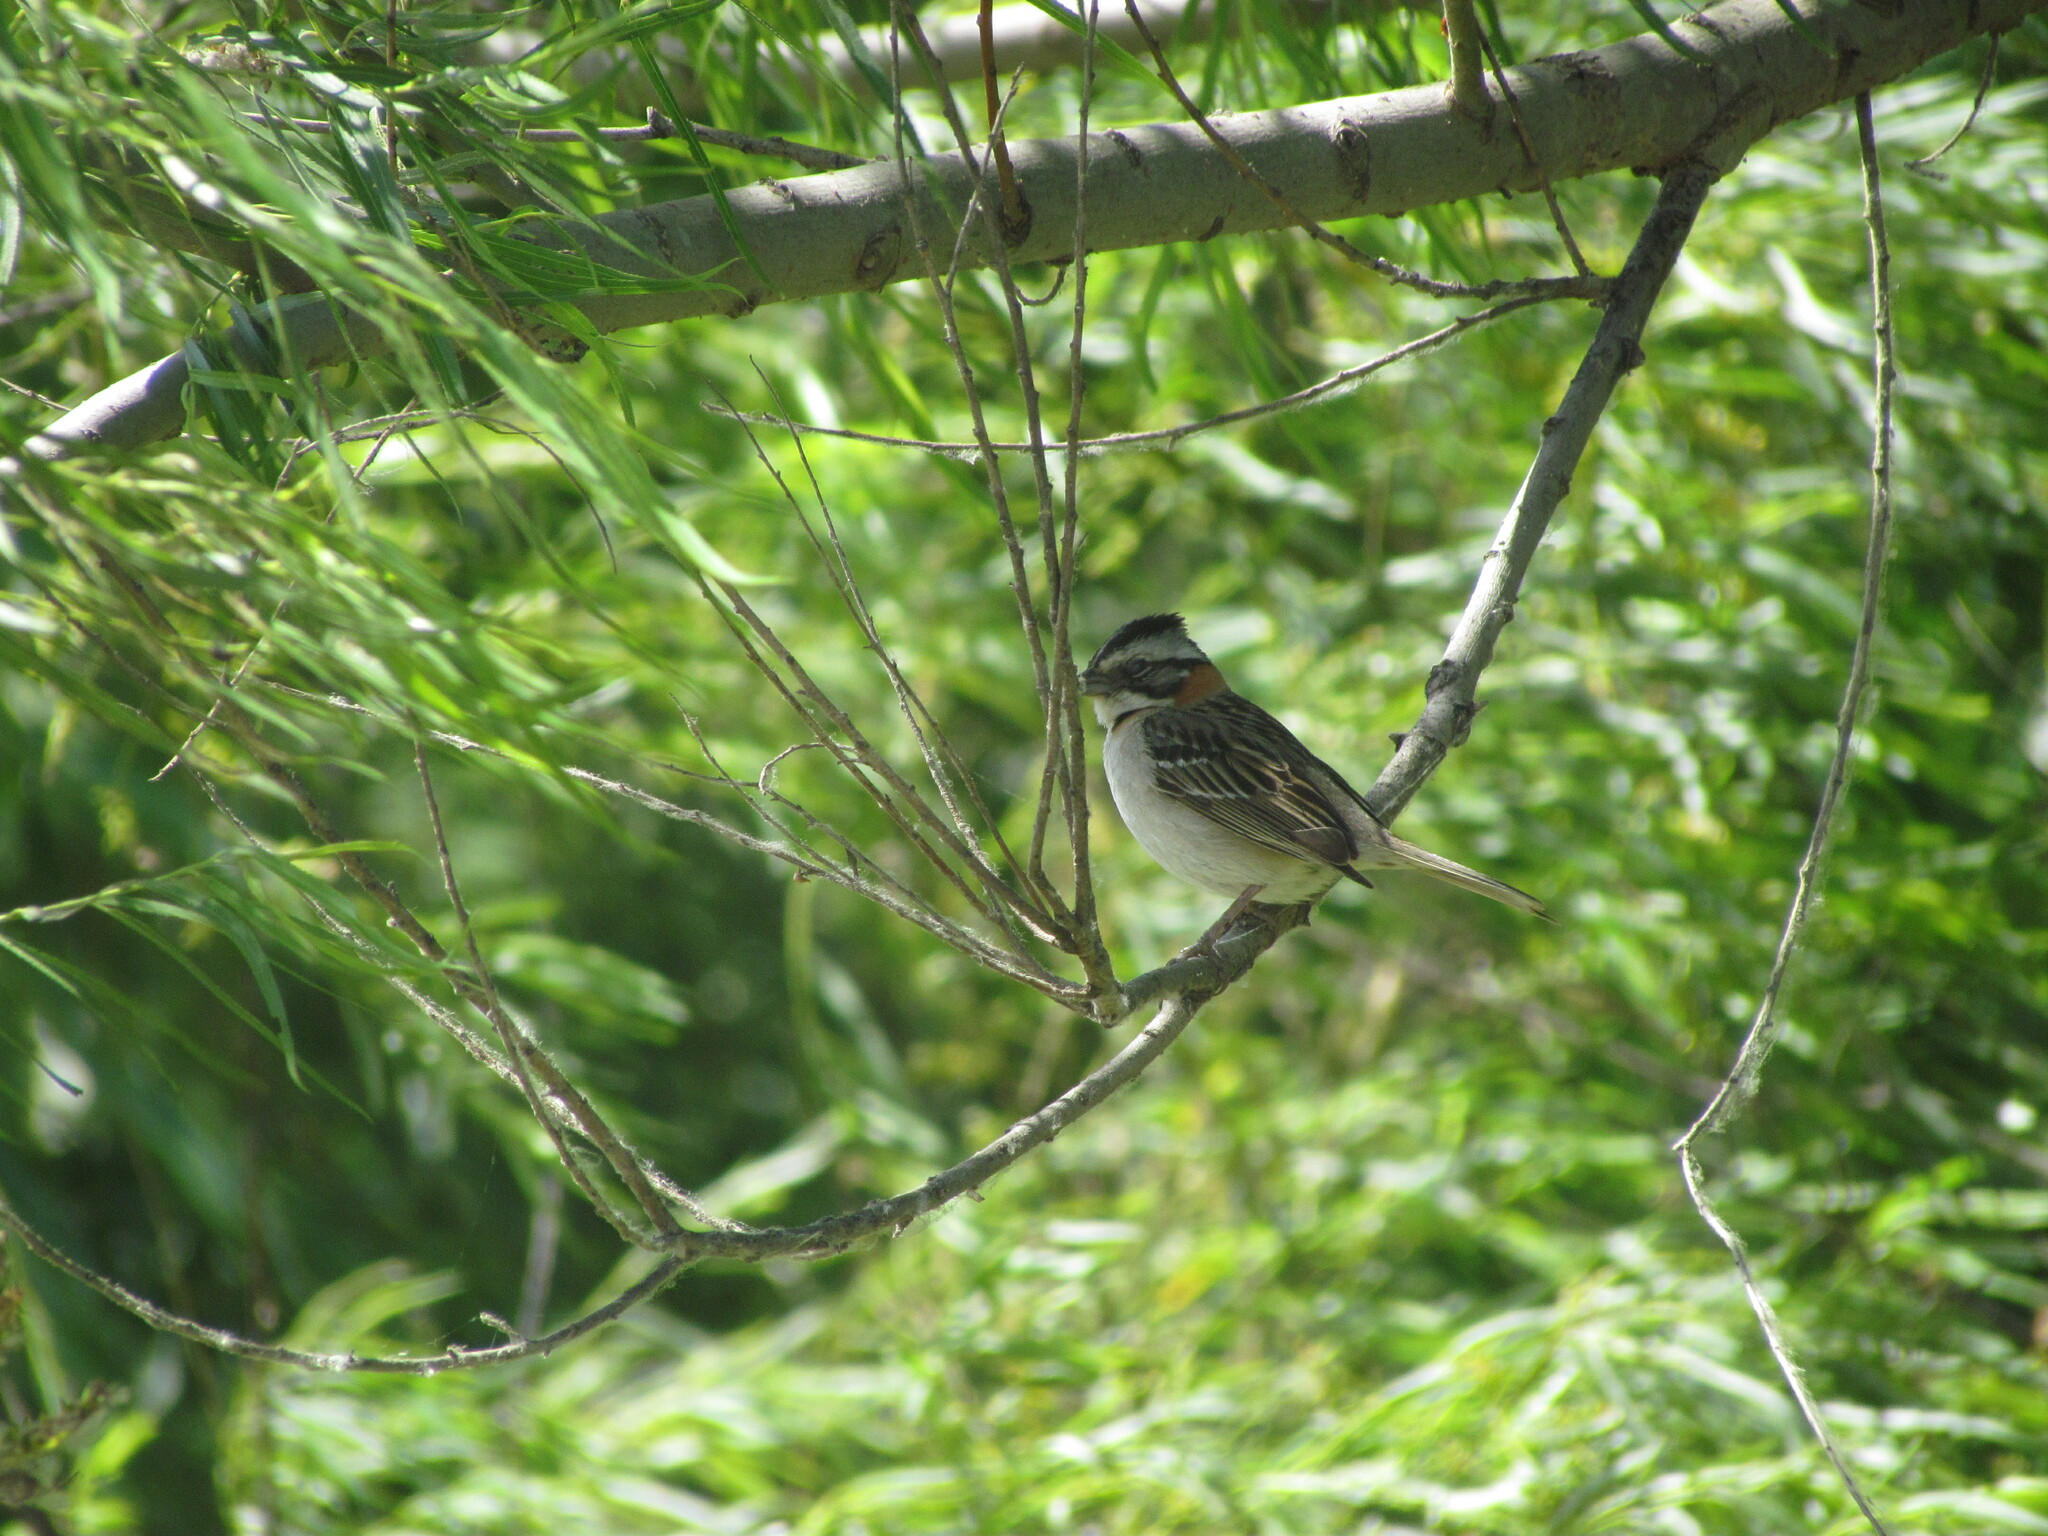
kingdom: Animalia
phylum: Chordata
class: Aves
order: Passeriformes
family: Passerellidae
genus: Zonotrichia
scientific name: Zonotrichia capensis
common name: Rufous-collared sparrow
